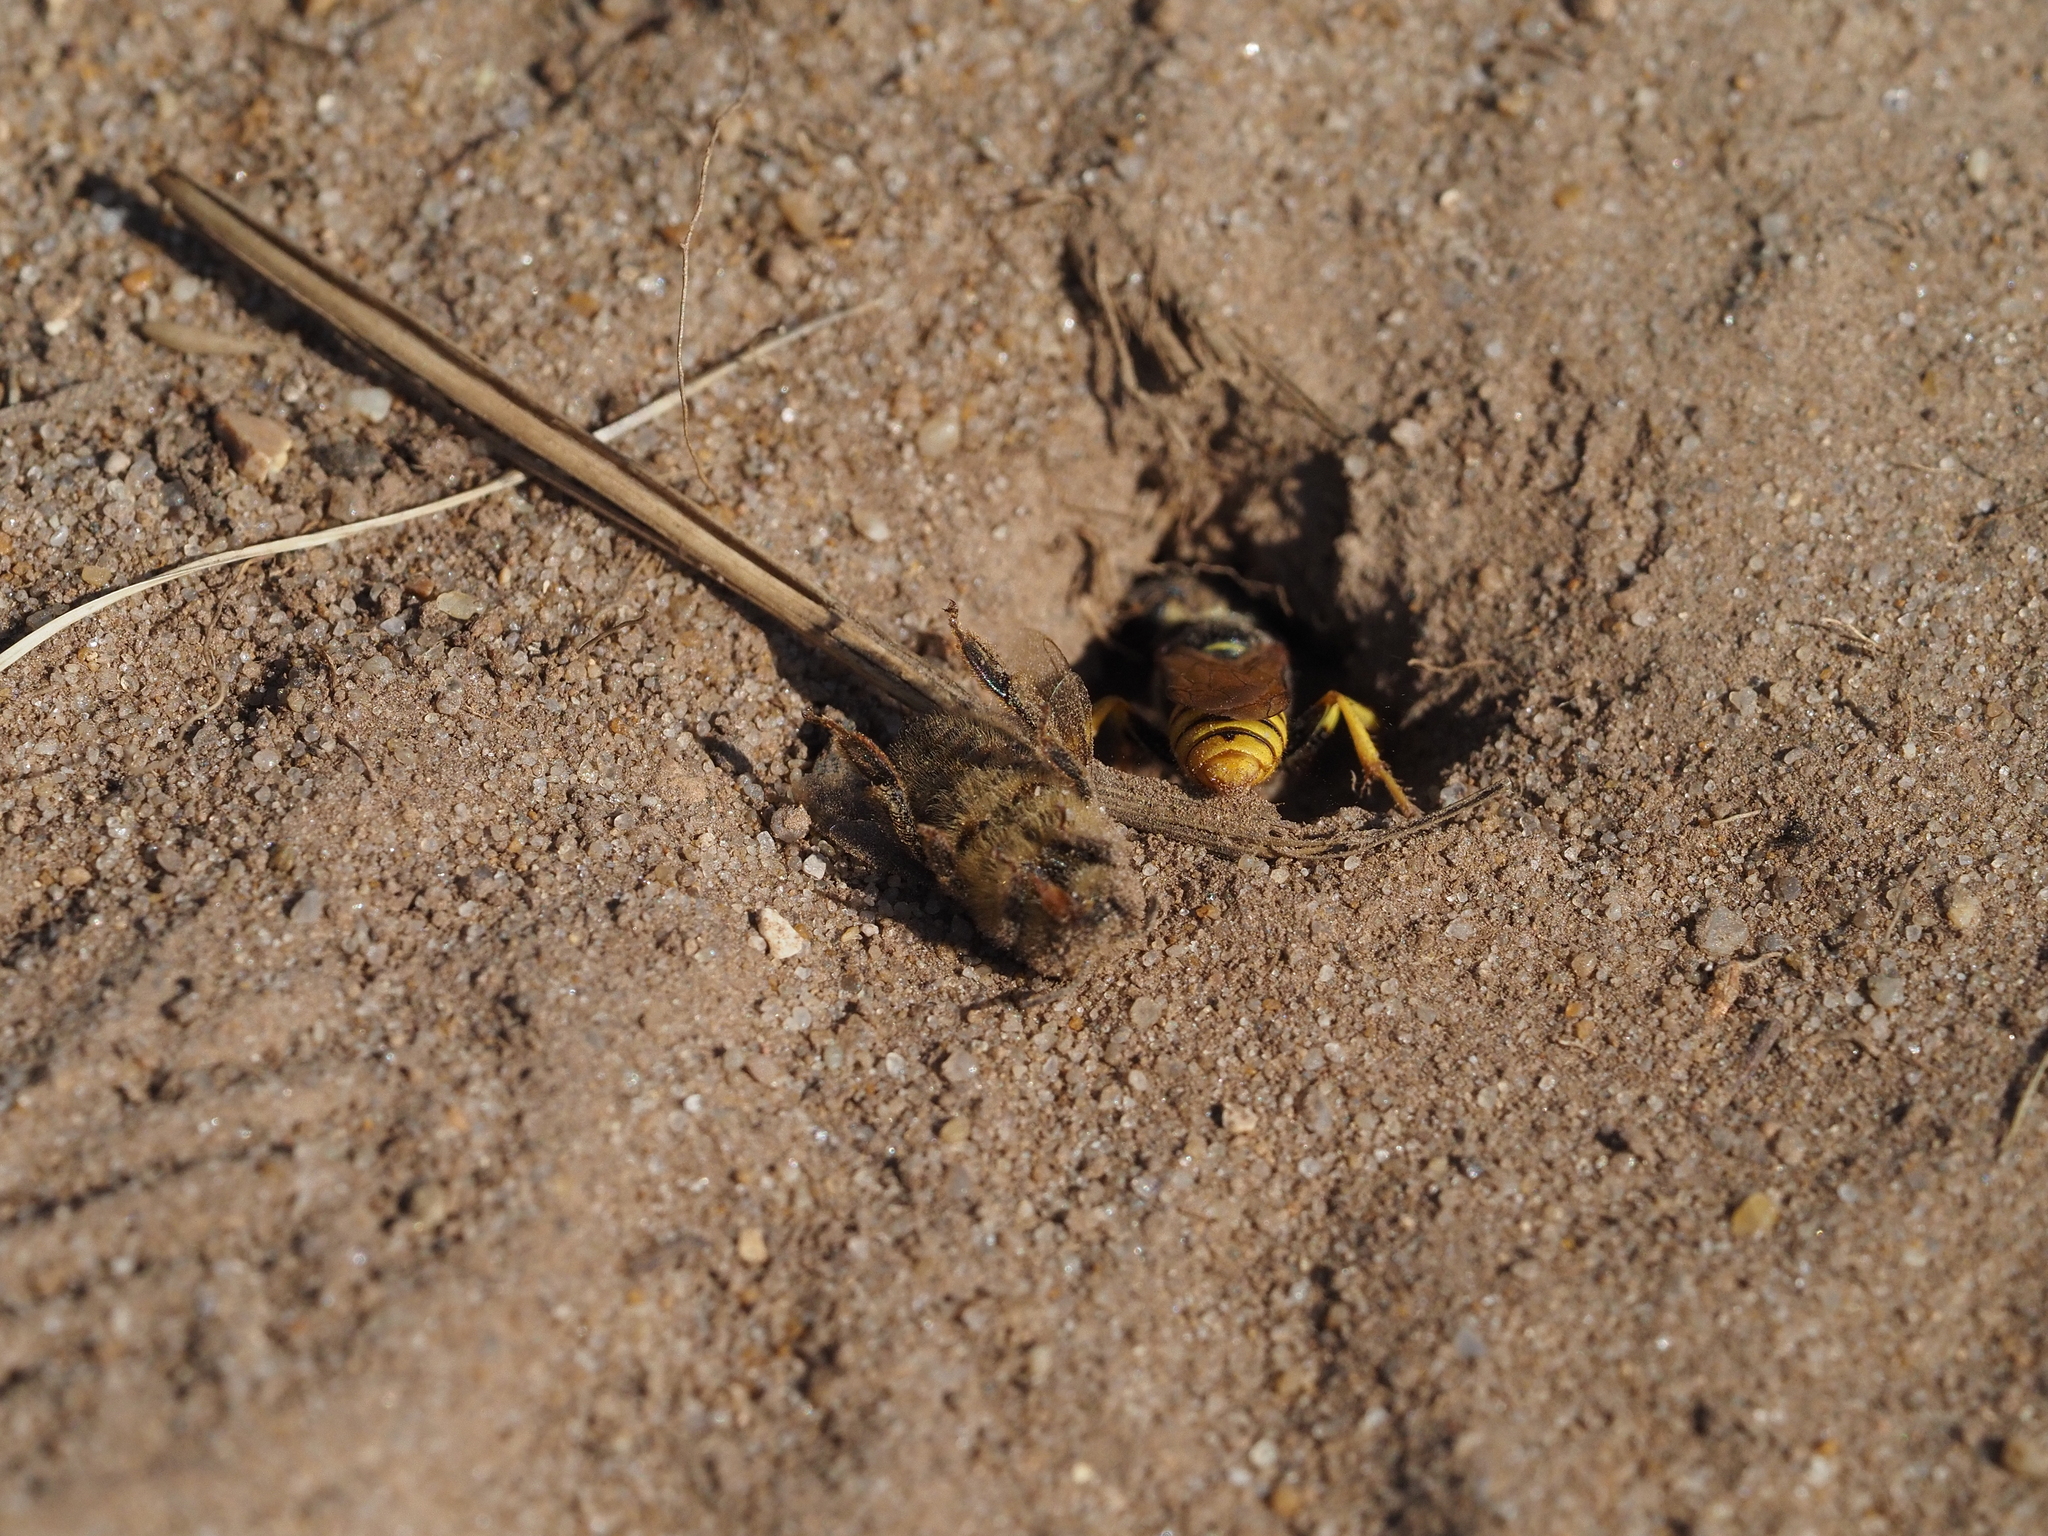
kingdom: Animalia
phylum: Arthropoda
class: Insecta
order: Hymenoptera
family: Crabronidae
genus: Philanthus
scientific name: Philanthus triangulum
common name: Bee wolf
